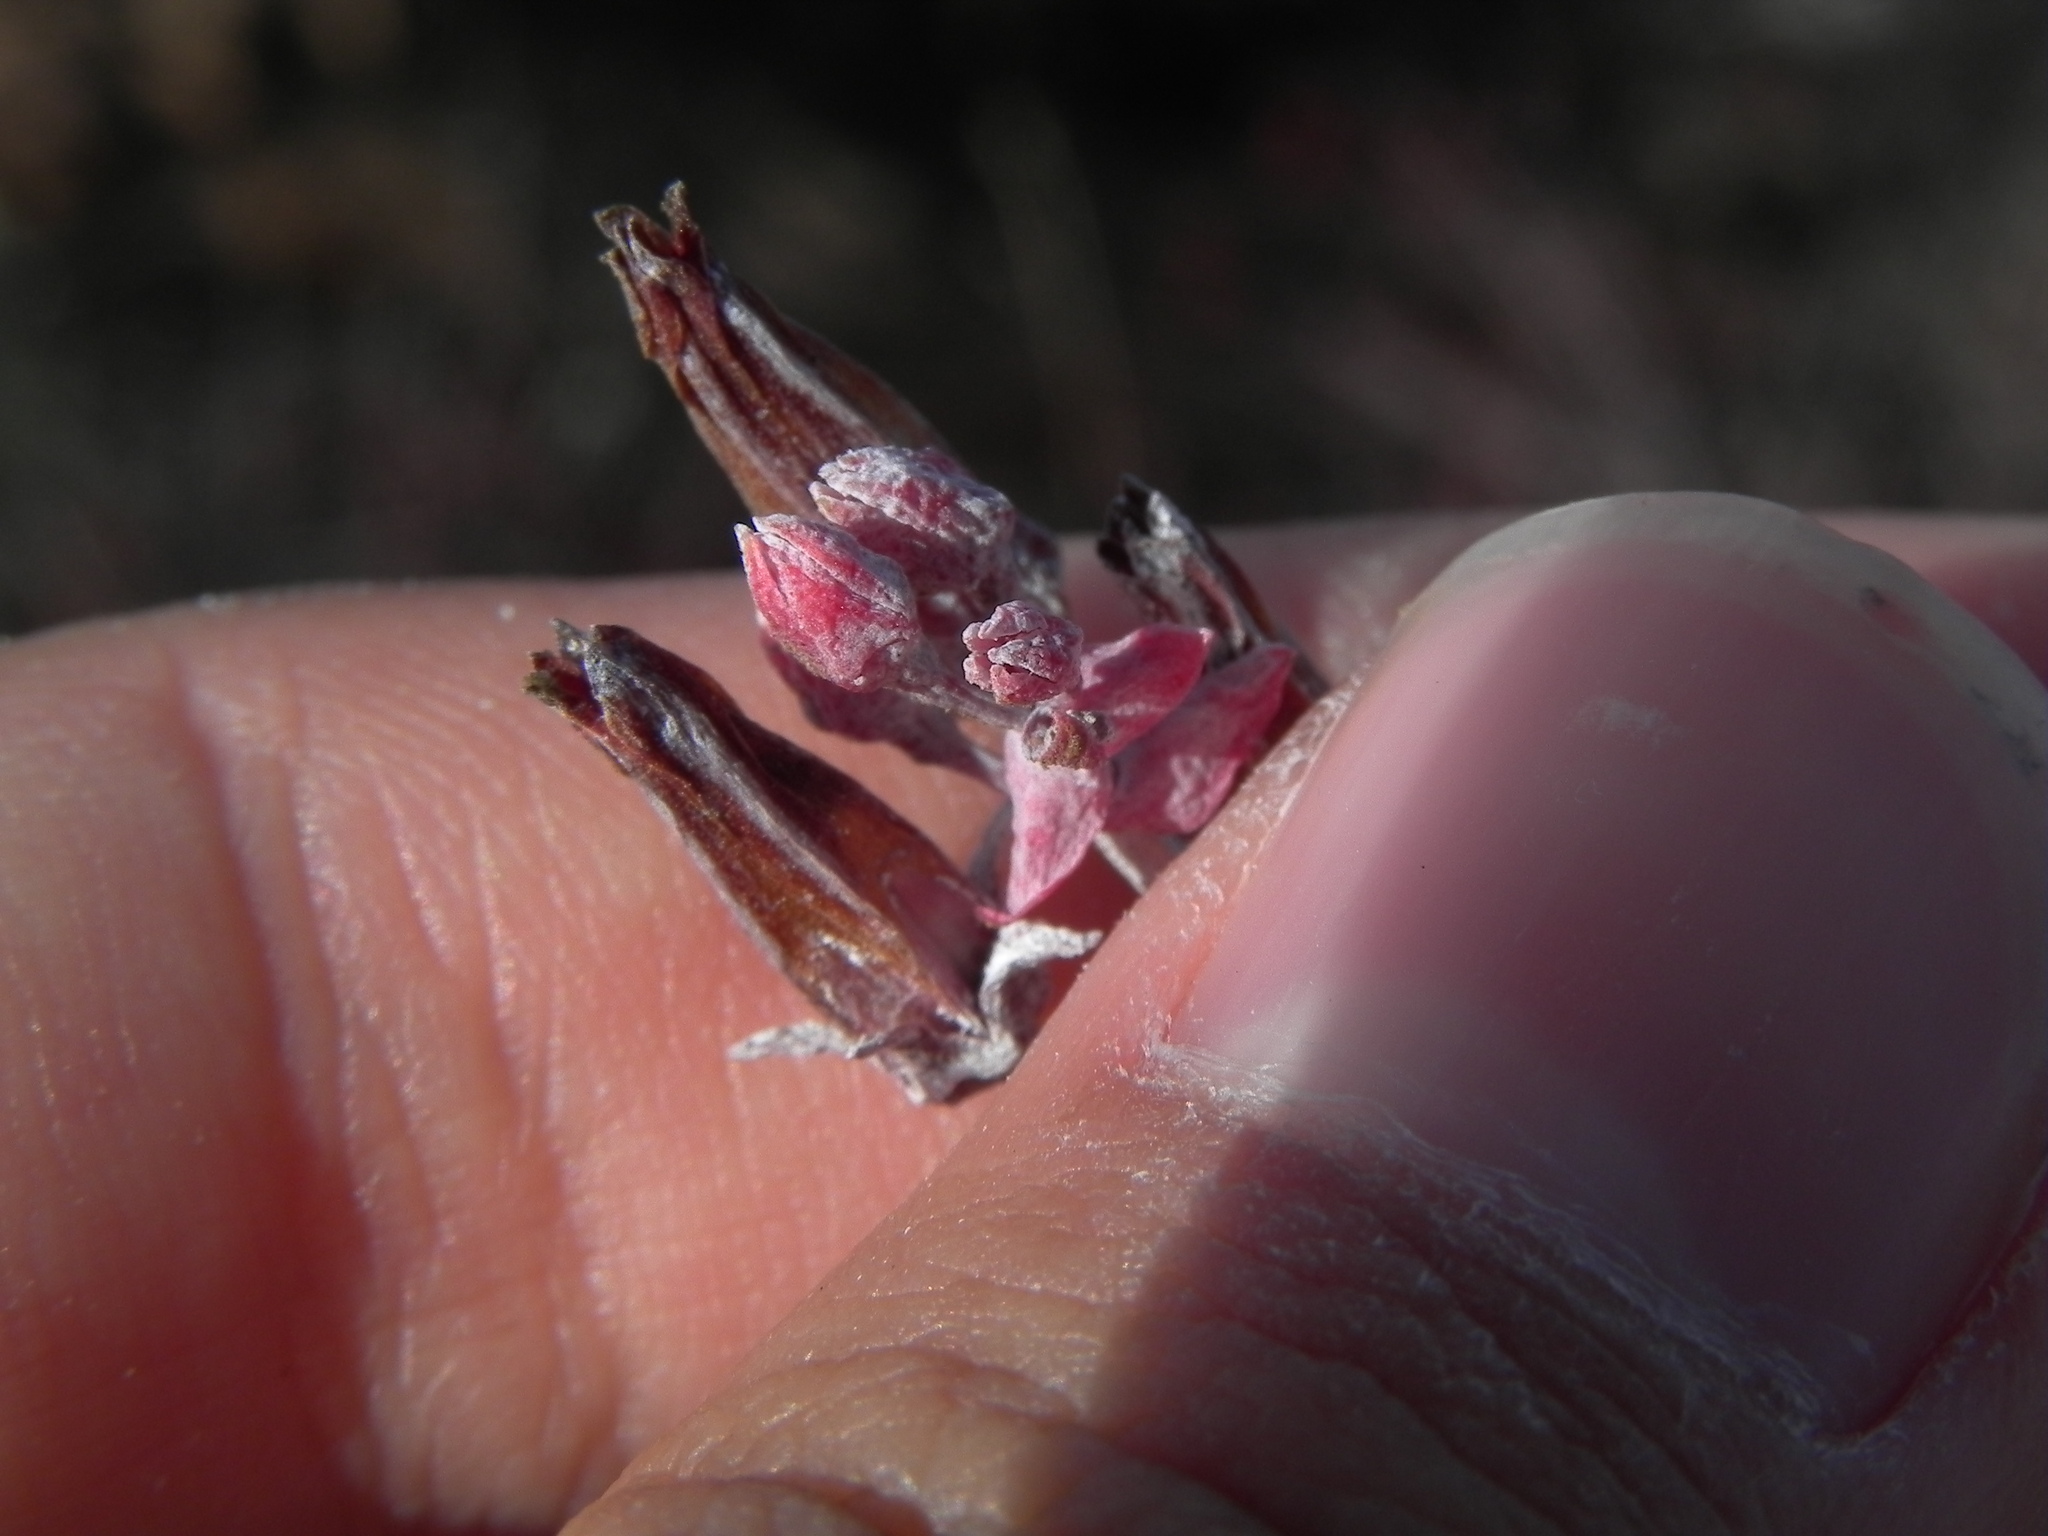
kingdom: Plantae
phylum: Tracheophyta
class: Magnoliopsida
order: Saxifragales
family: Crassulaceae
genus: Dudleya
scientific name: Dudleya pulverulenta
